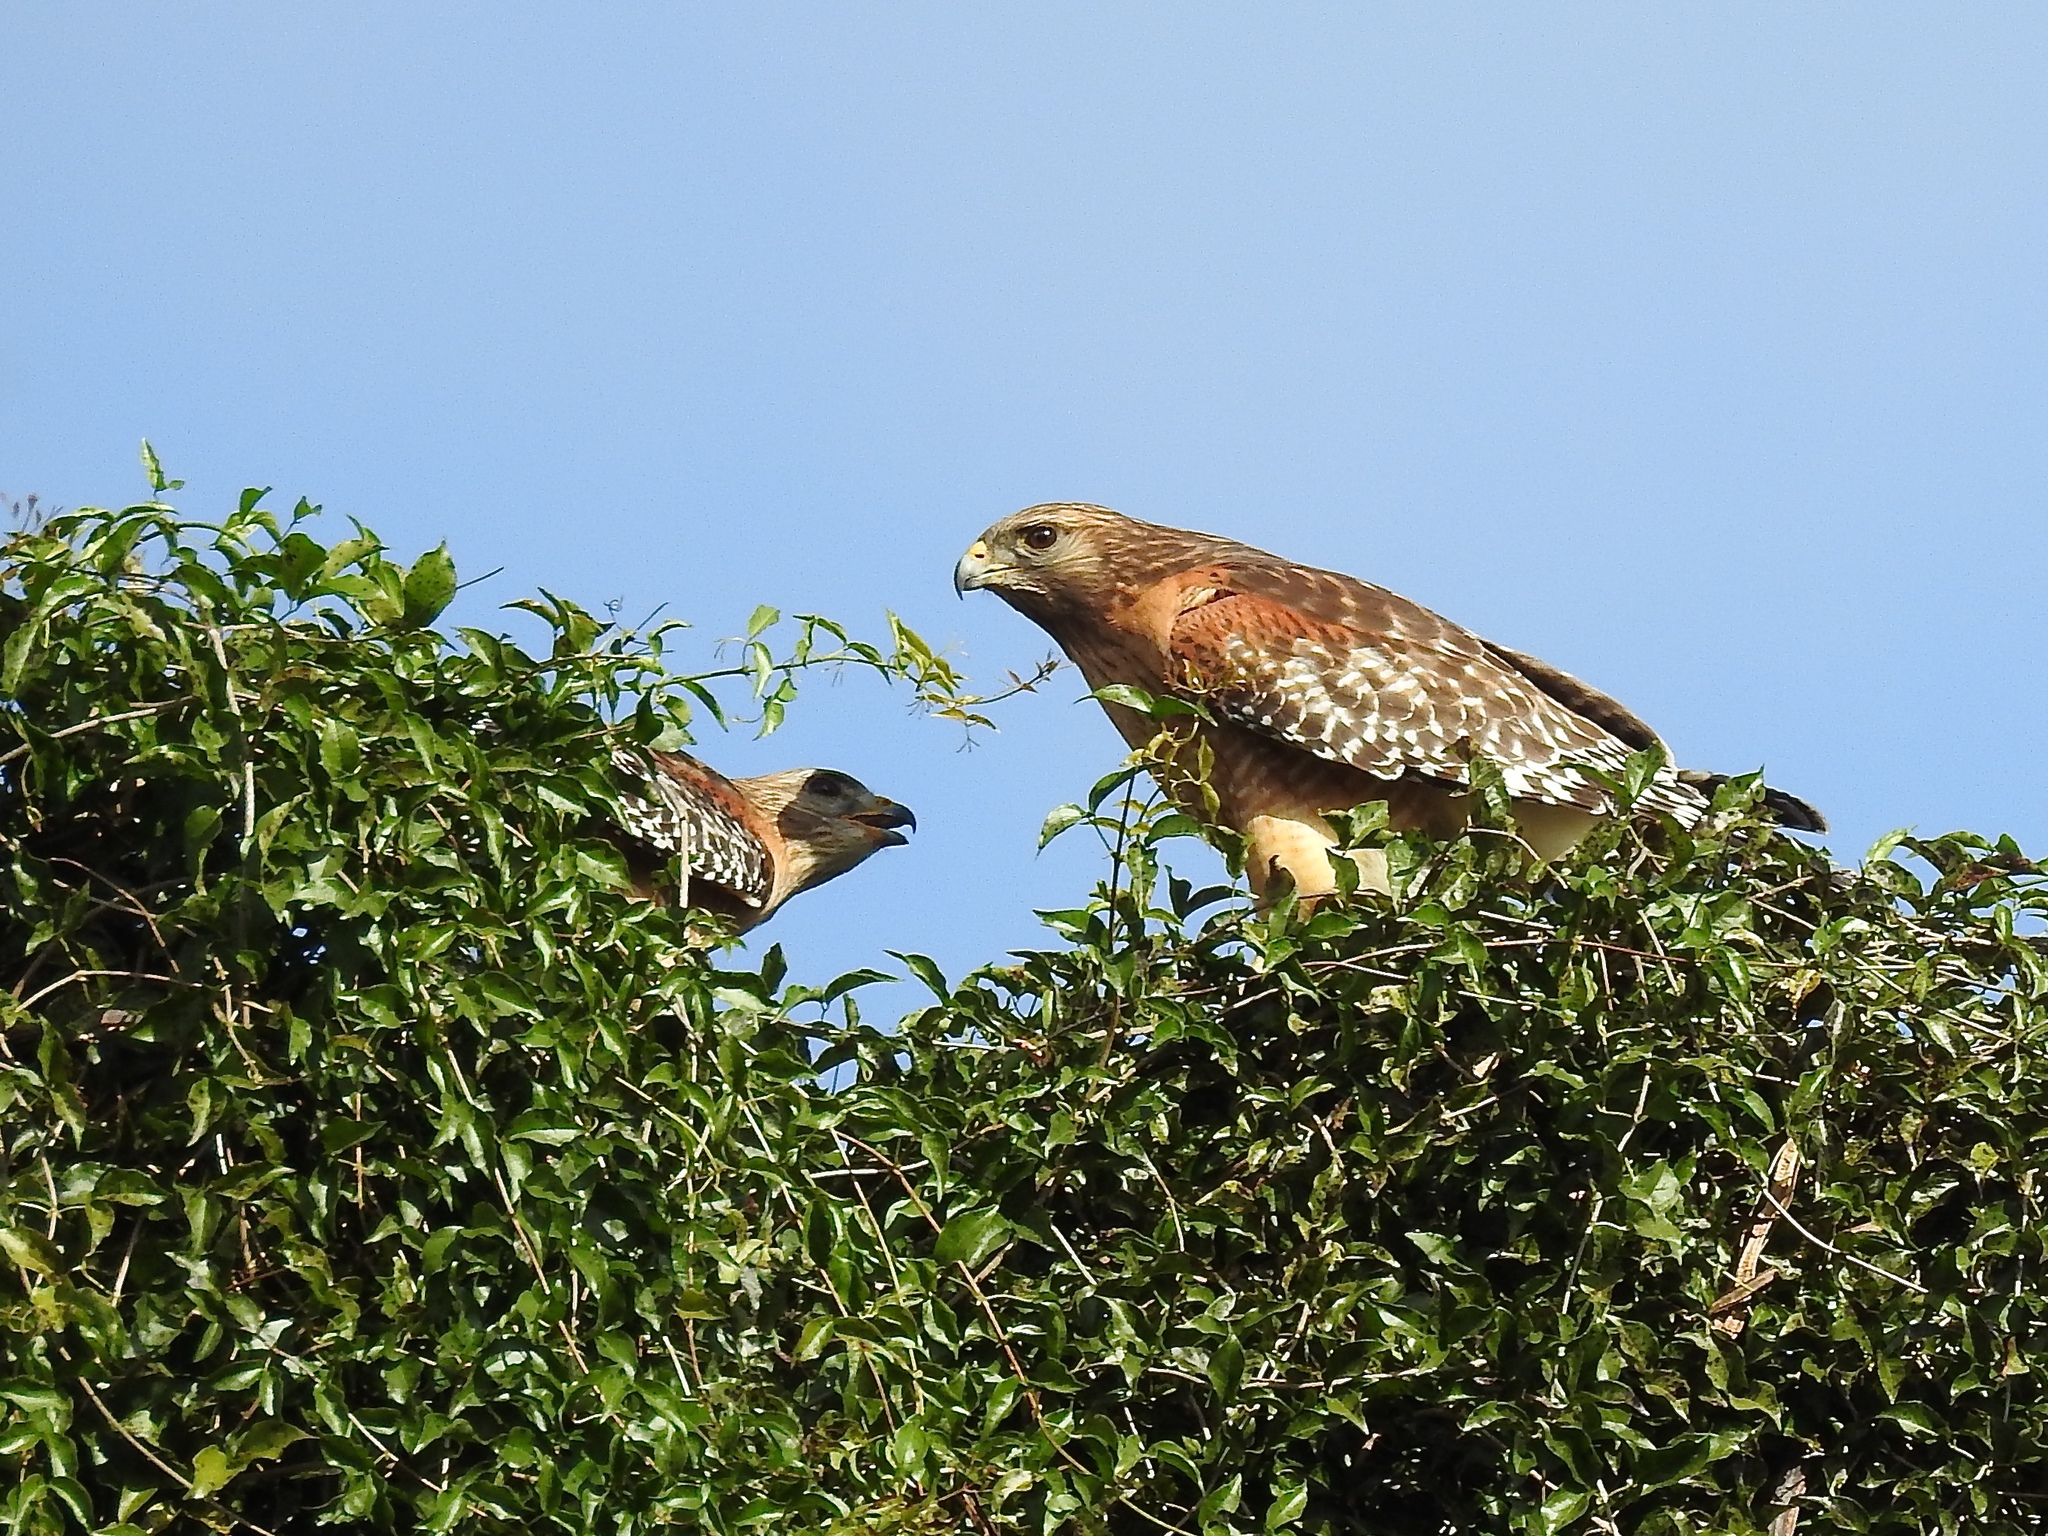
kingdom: Animalia
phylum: Chordata
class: Aves
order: Accipitriformes
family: Accipitridae
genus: Buteo
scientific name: Buteo lineatus
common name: Red-shouldered hawk
